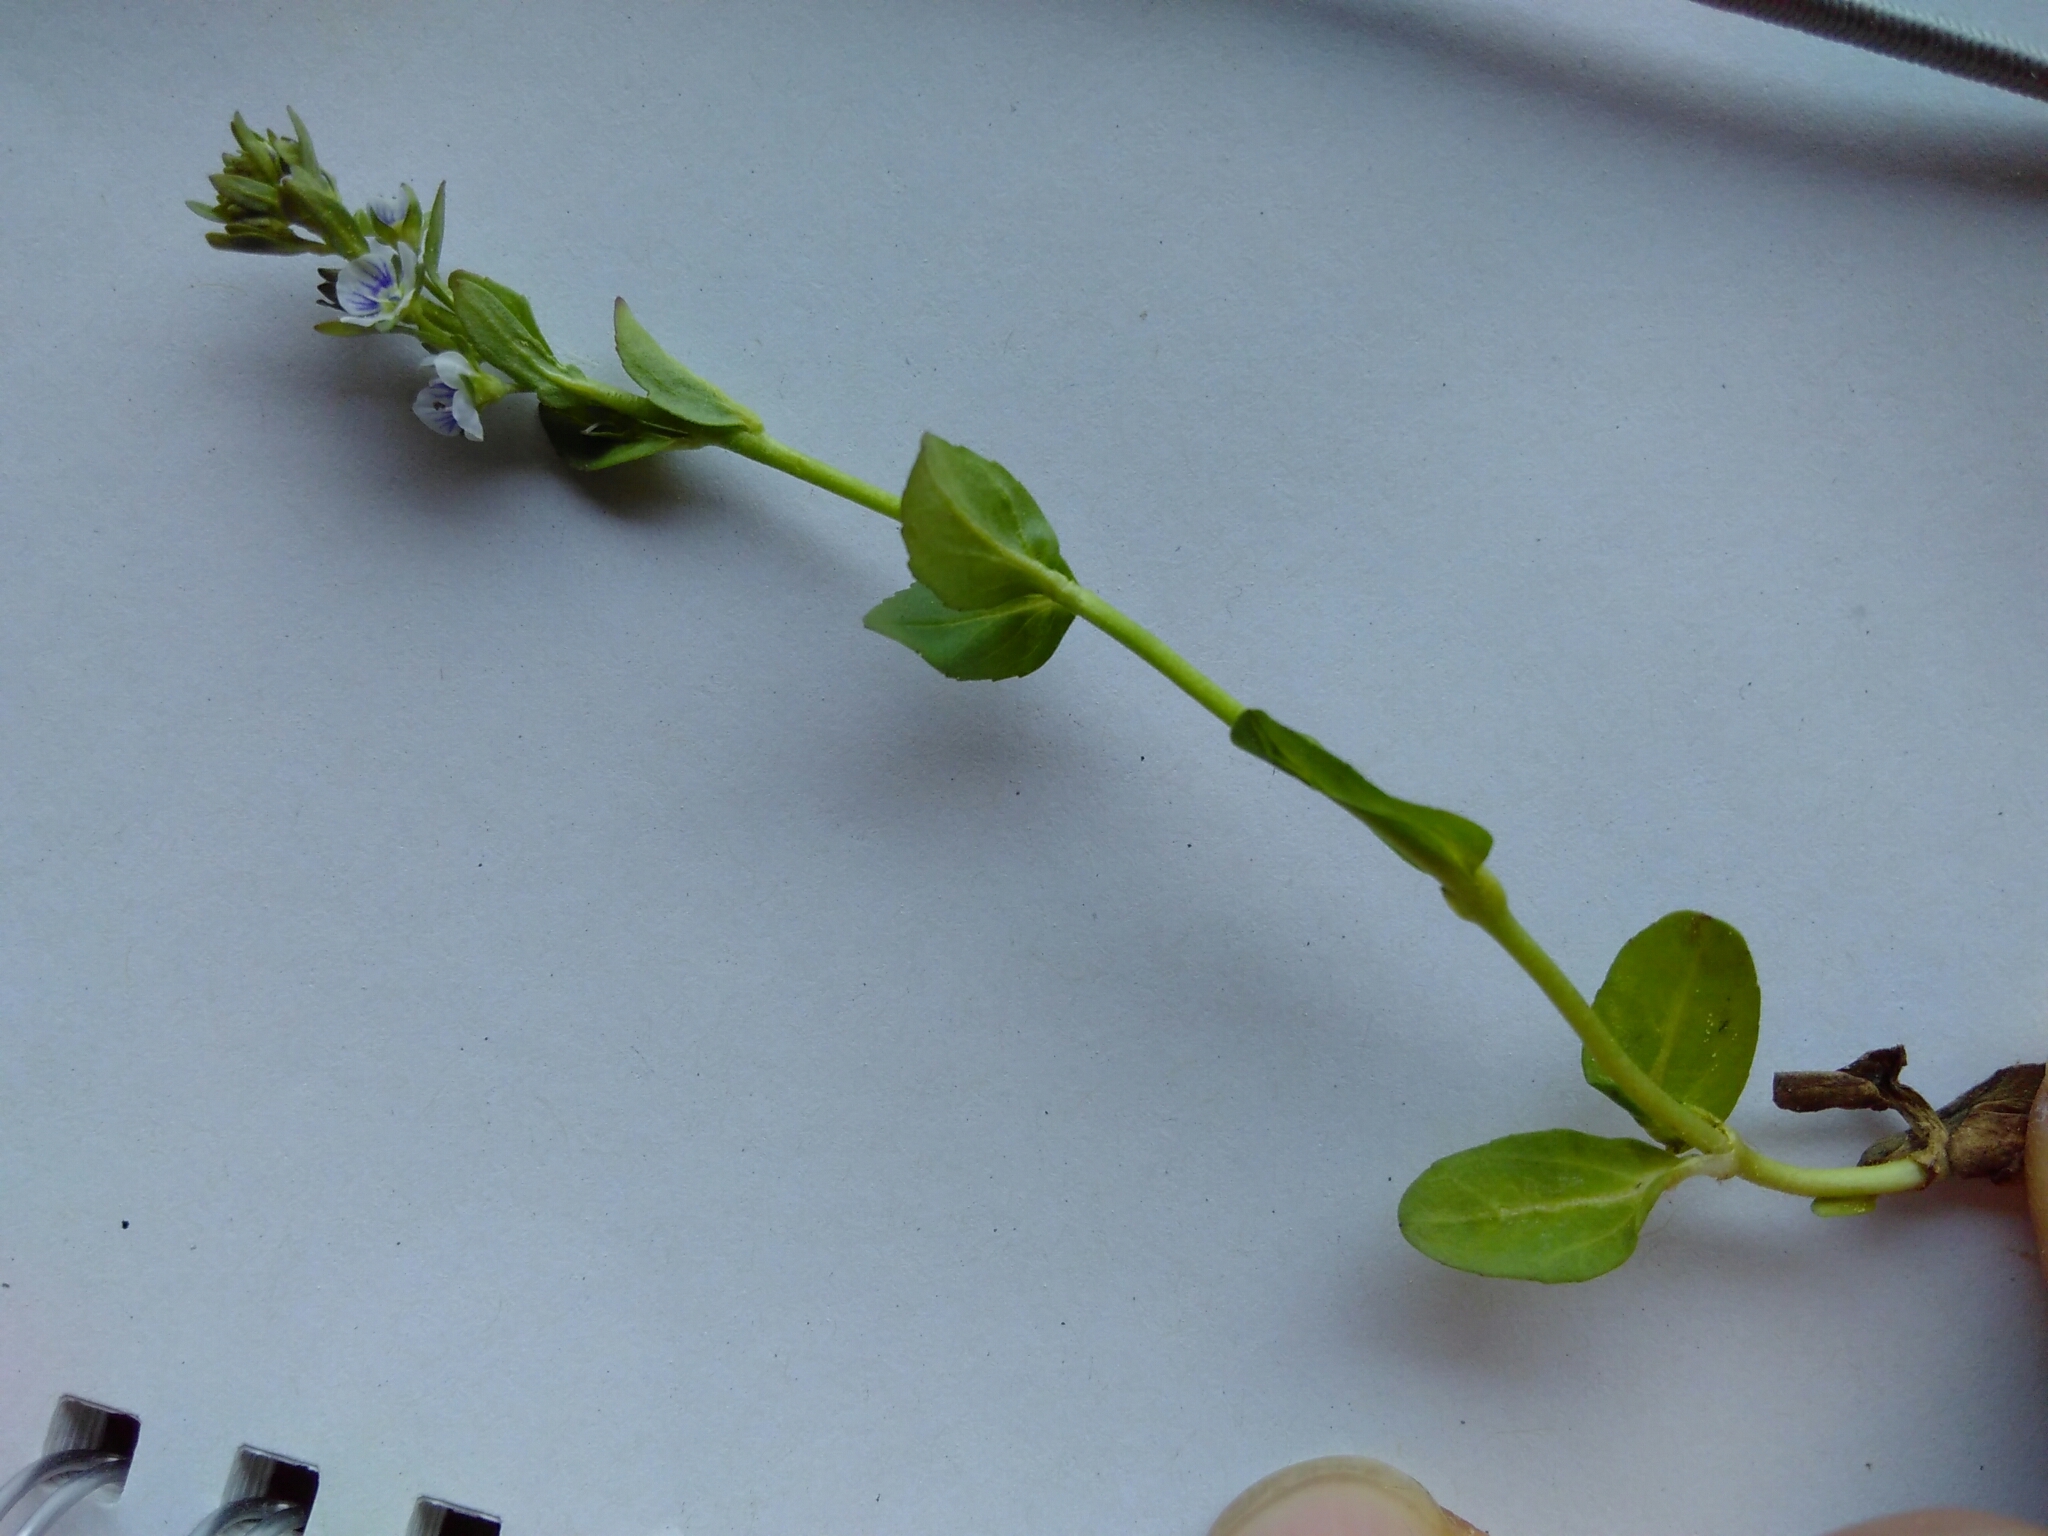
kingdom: Plantae
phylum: Tracheophyta
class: Magnoliopsida
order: Lamiales
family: Plantaginaceae
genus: Veronica
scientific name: Veronica serpyllifolia
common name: Thyme-leaved speedwell
